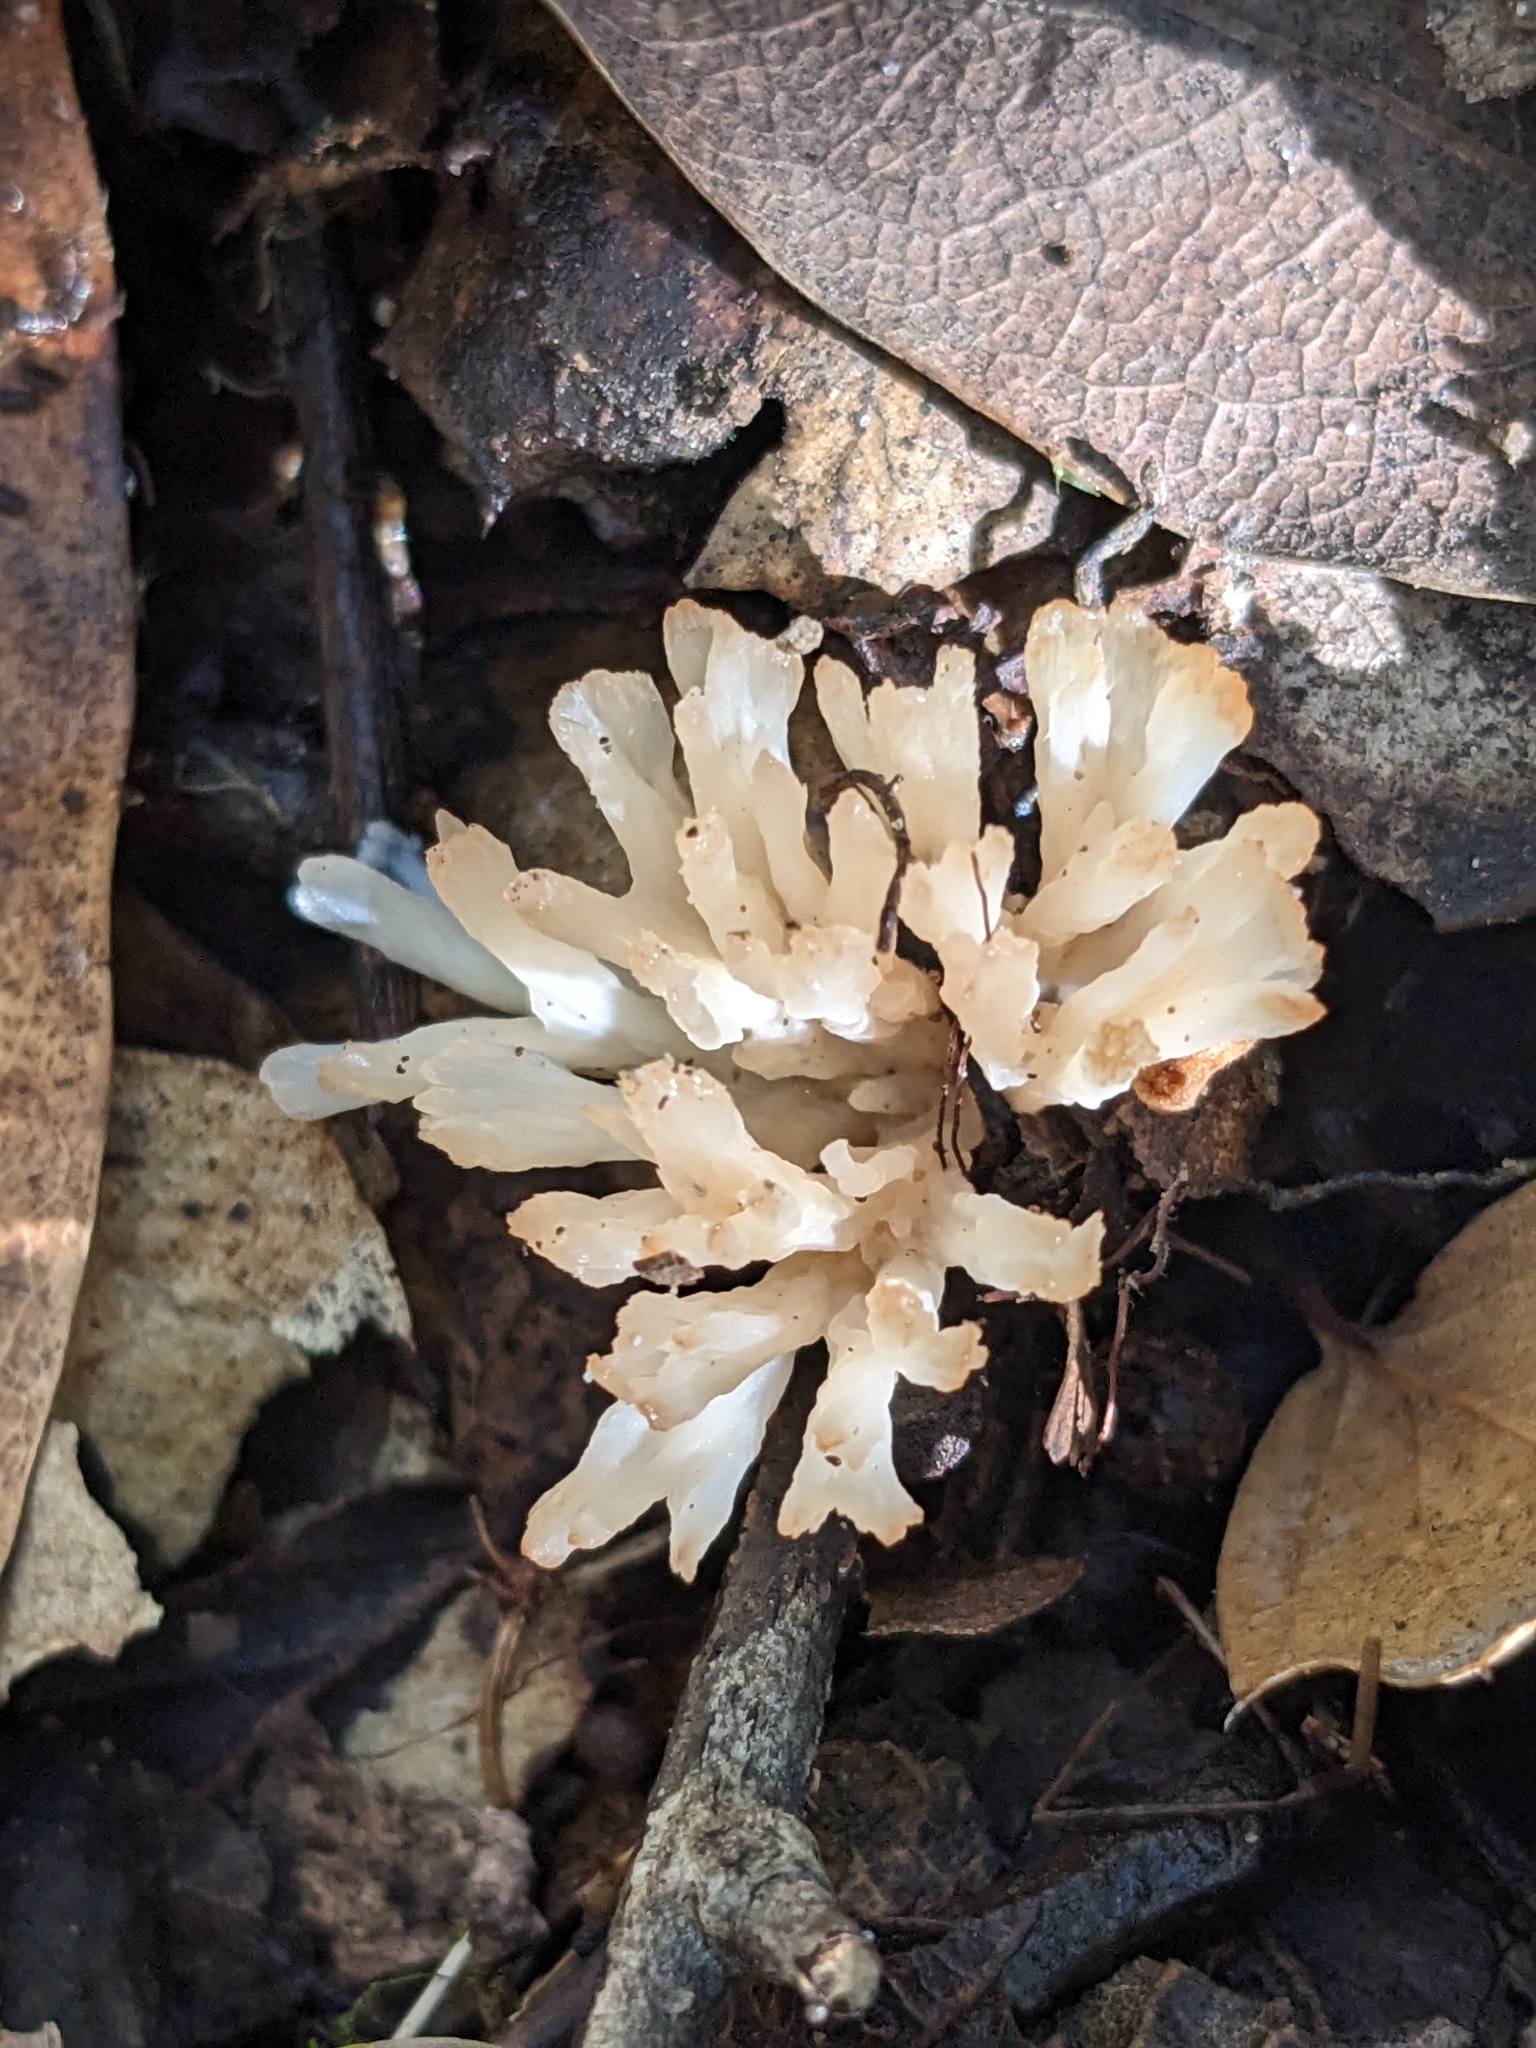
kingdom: Fungi
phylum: Basidiomycota
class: Agaricomycetes
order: Tremellodendropsidales
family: Tremellodendropsidaceae
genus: Tremellodendropsis
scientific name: Tremellodendropsis tuberosa
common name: Ashen coral
